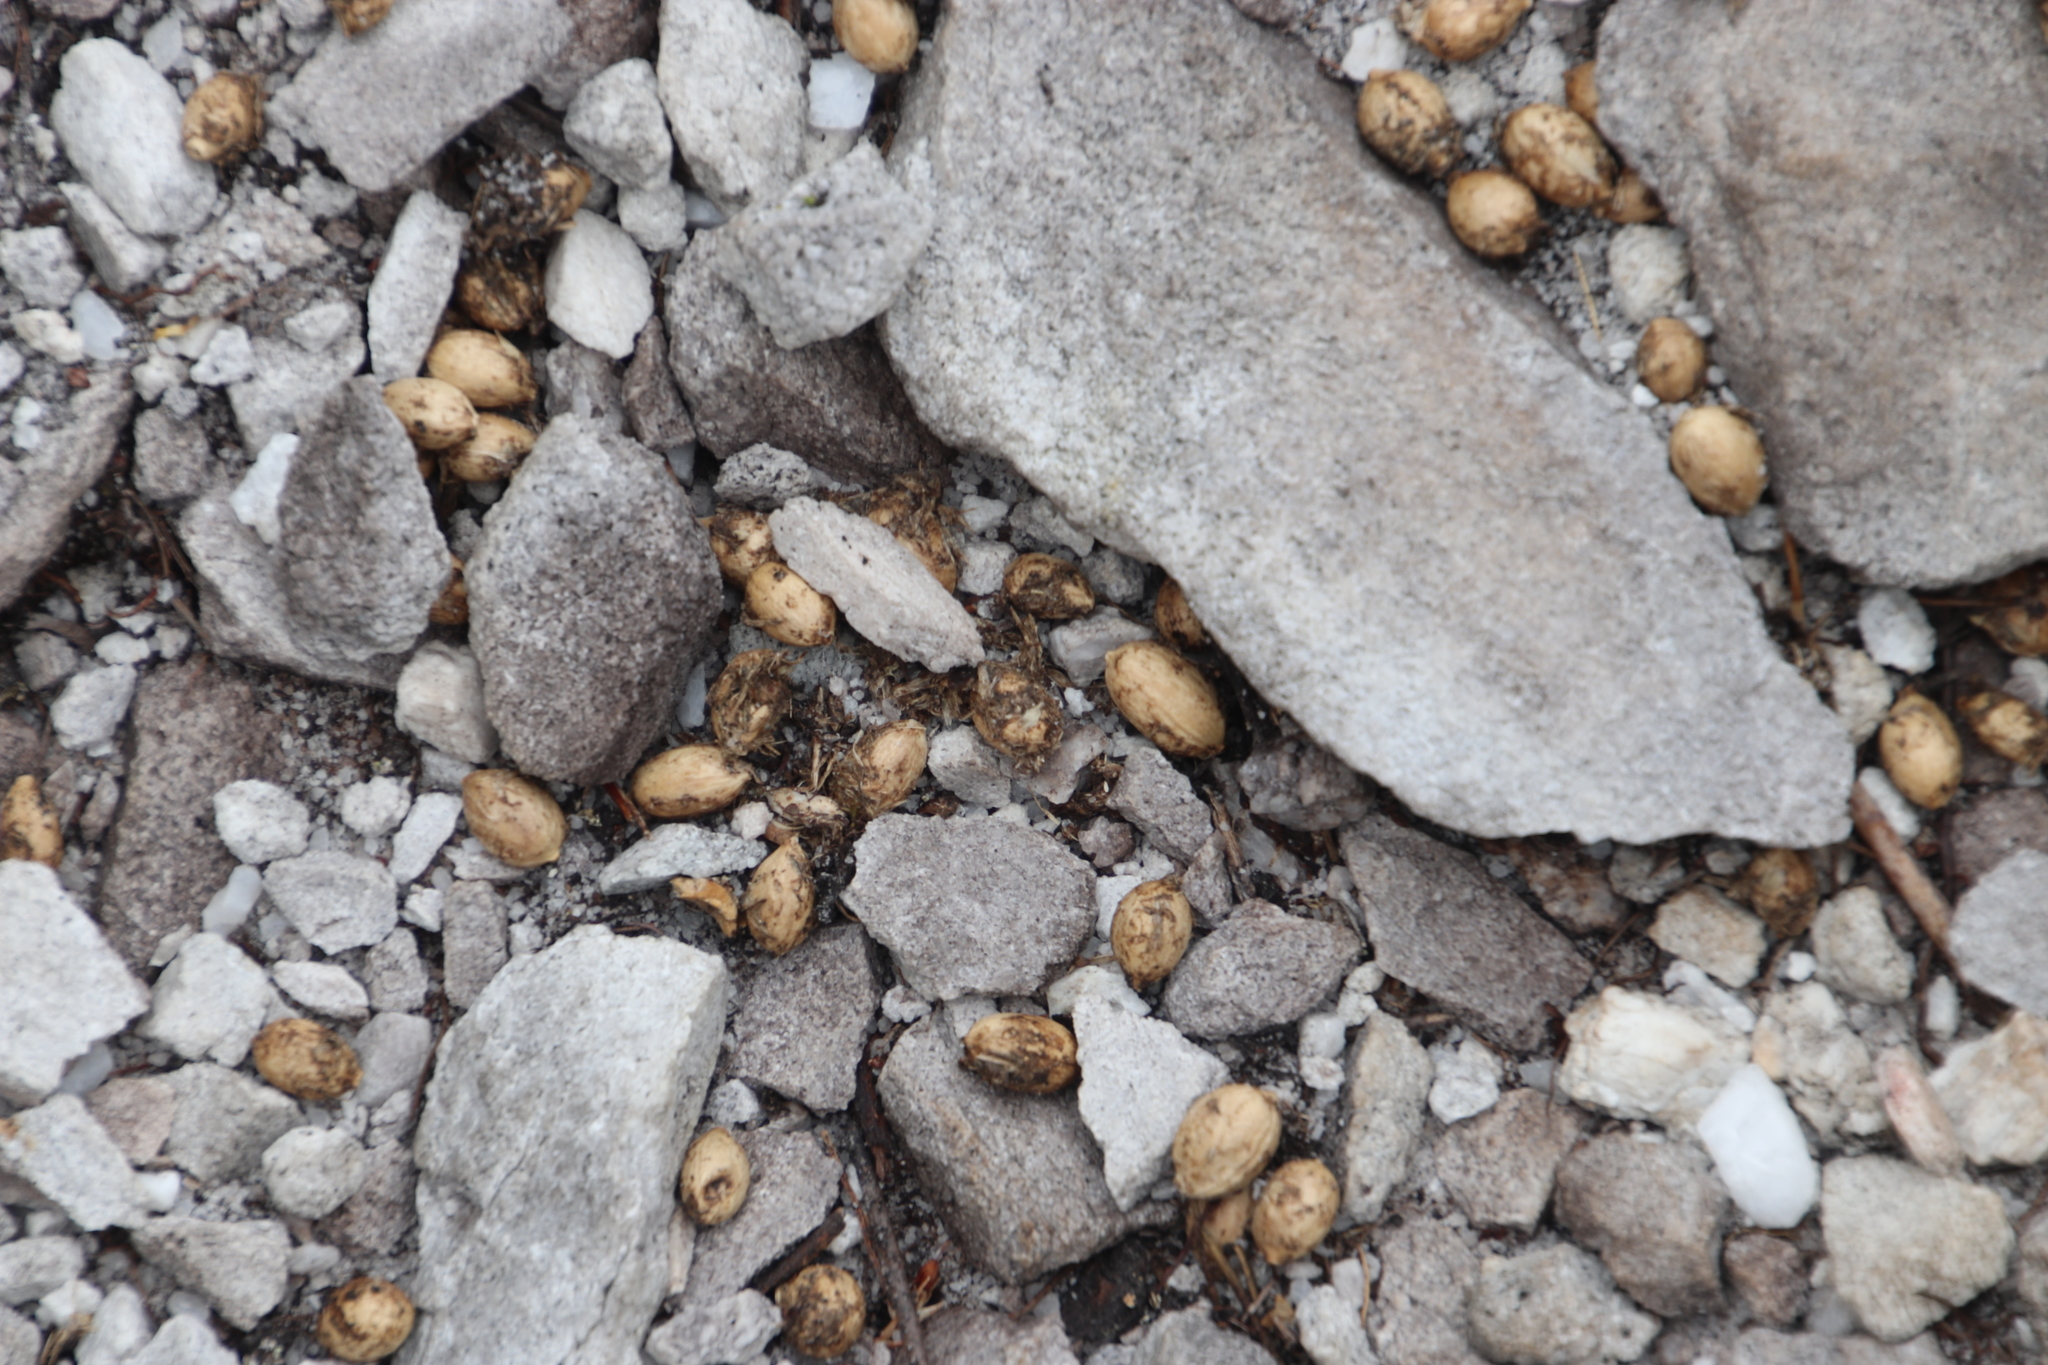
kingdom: Plantae
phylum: Tracheophyta
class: Magnoliopsida
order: Asterales
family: Asteraceae
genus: Osteospermum
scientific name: Osteospermum moniliferum
